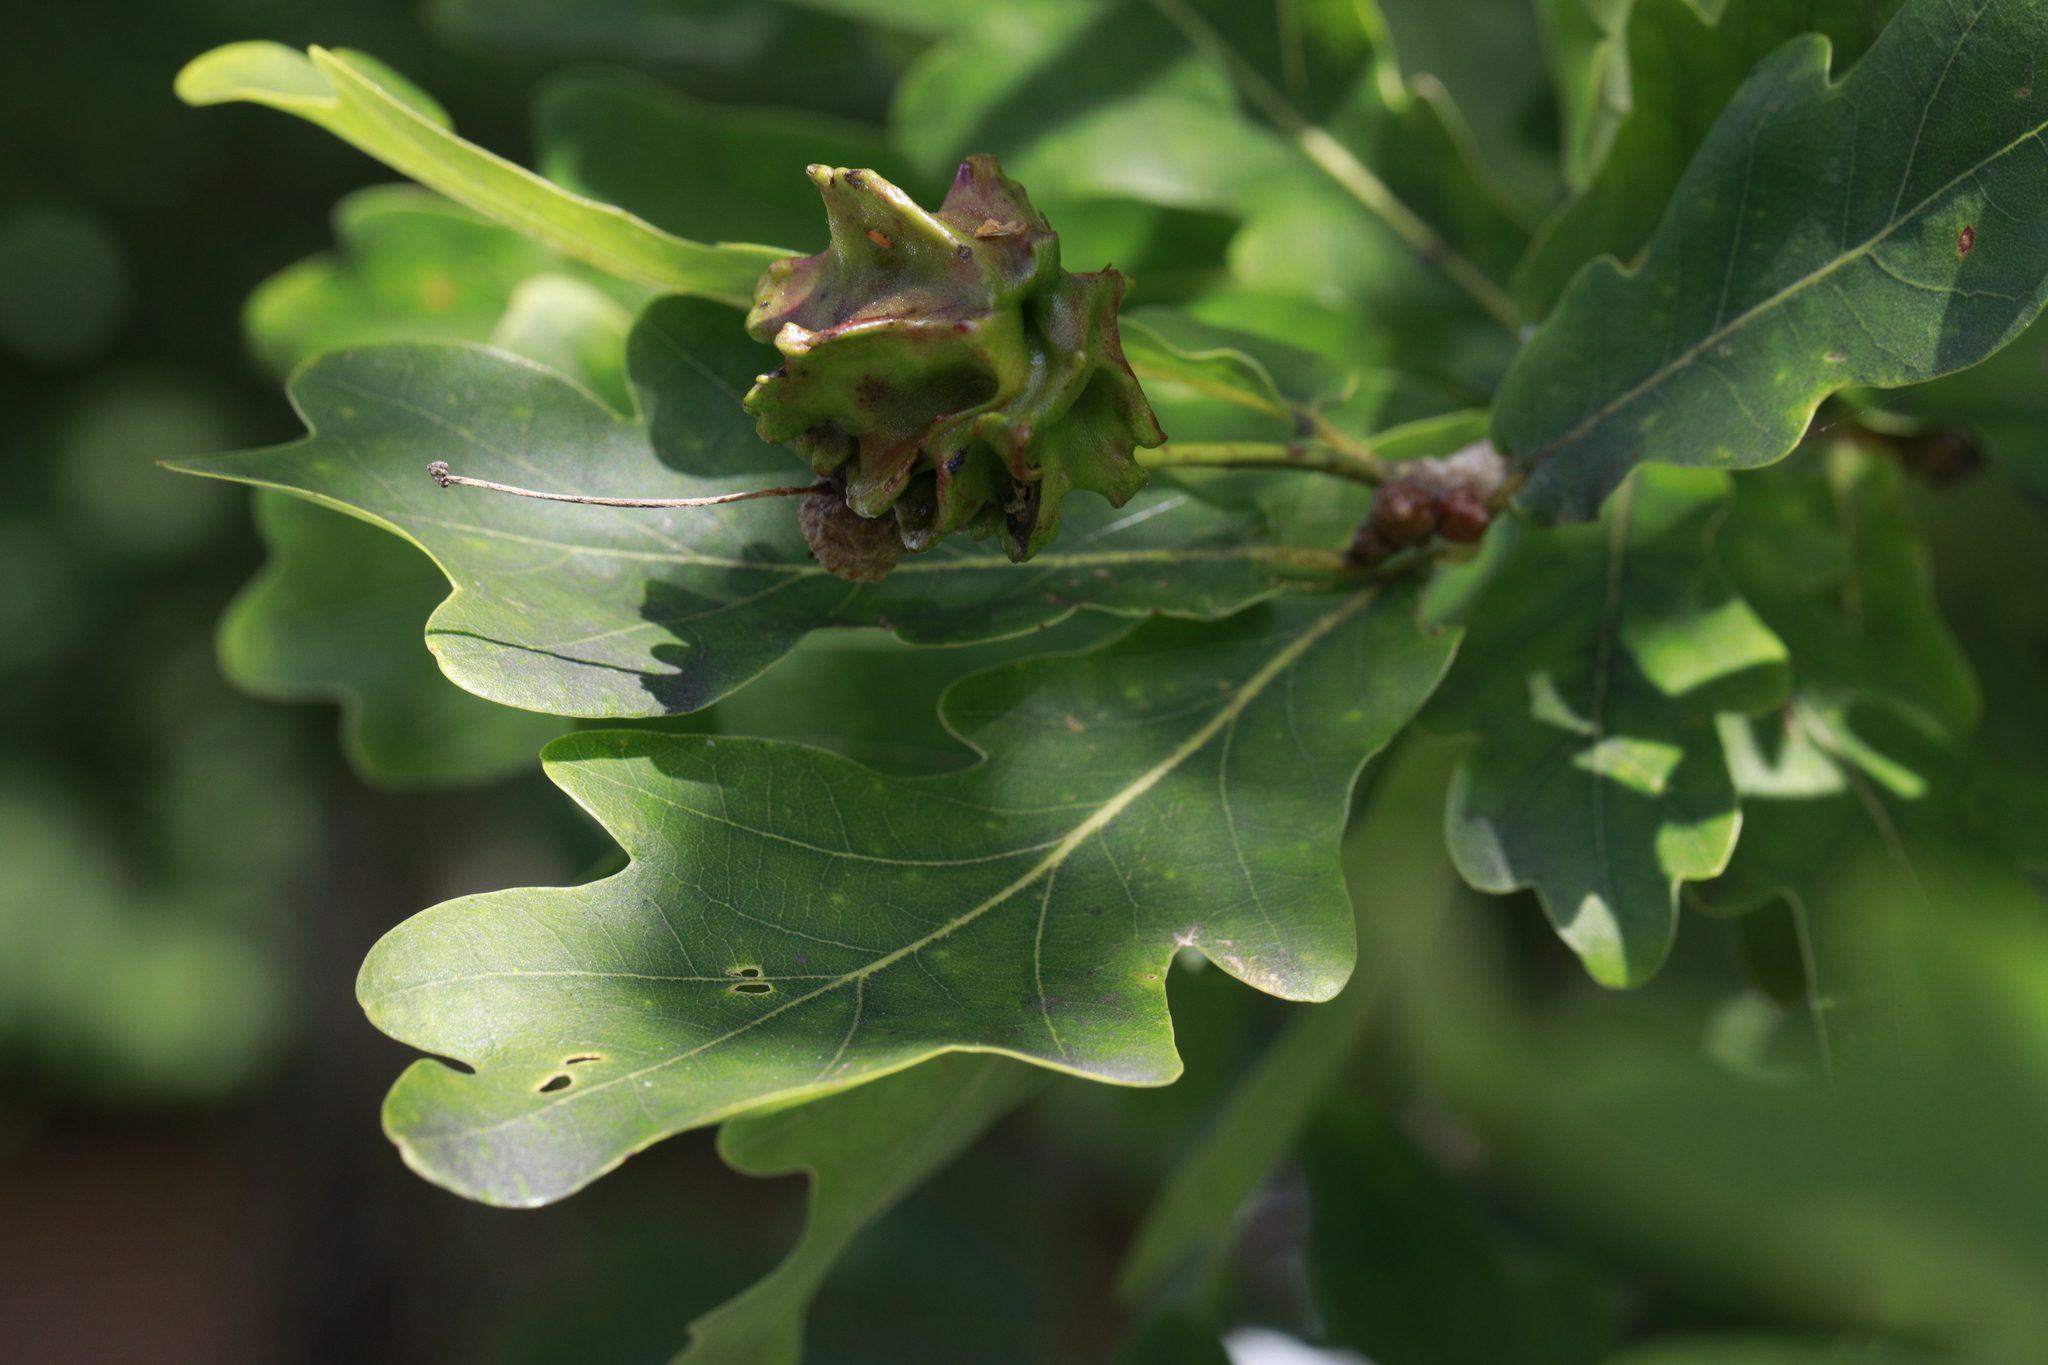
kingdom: Animalia
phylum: Arthropoda
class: Insecta
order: Hymenoptera
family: Cynipidae
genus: Andricus
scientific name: Andricus quercuscalicis
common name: Knopper gall
